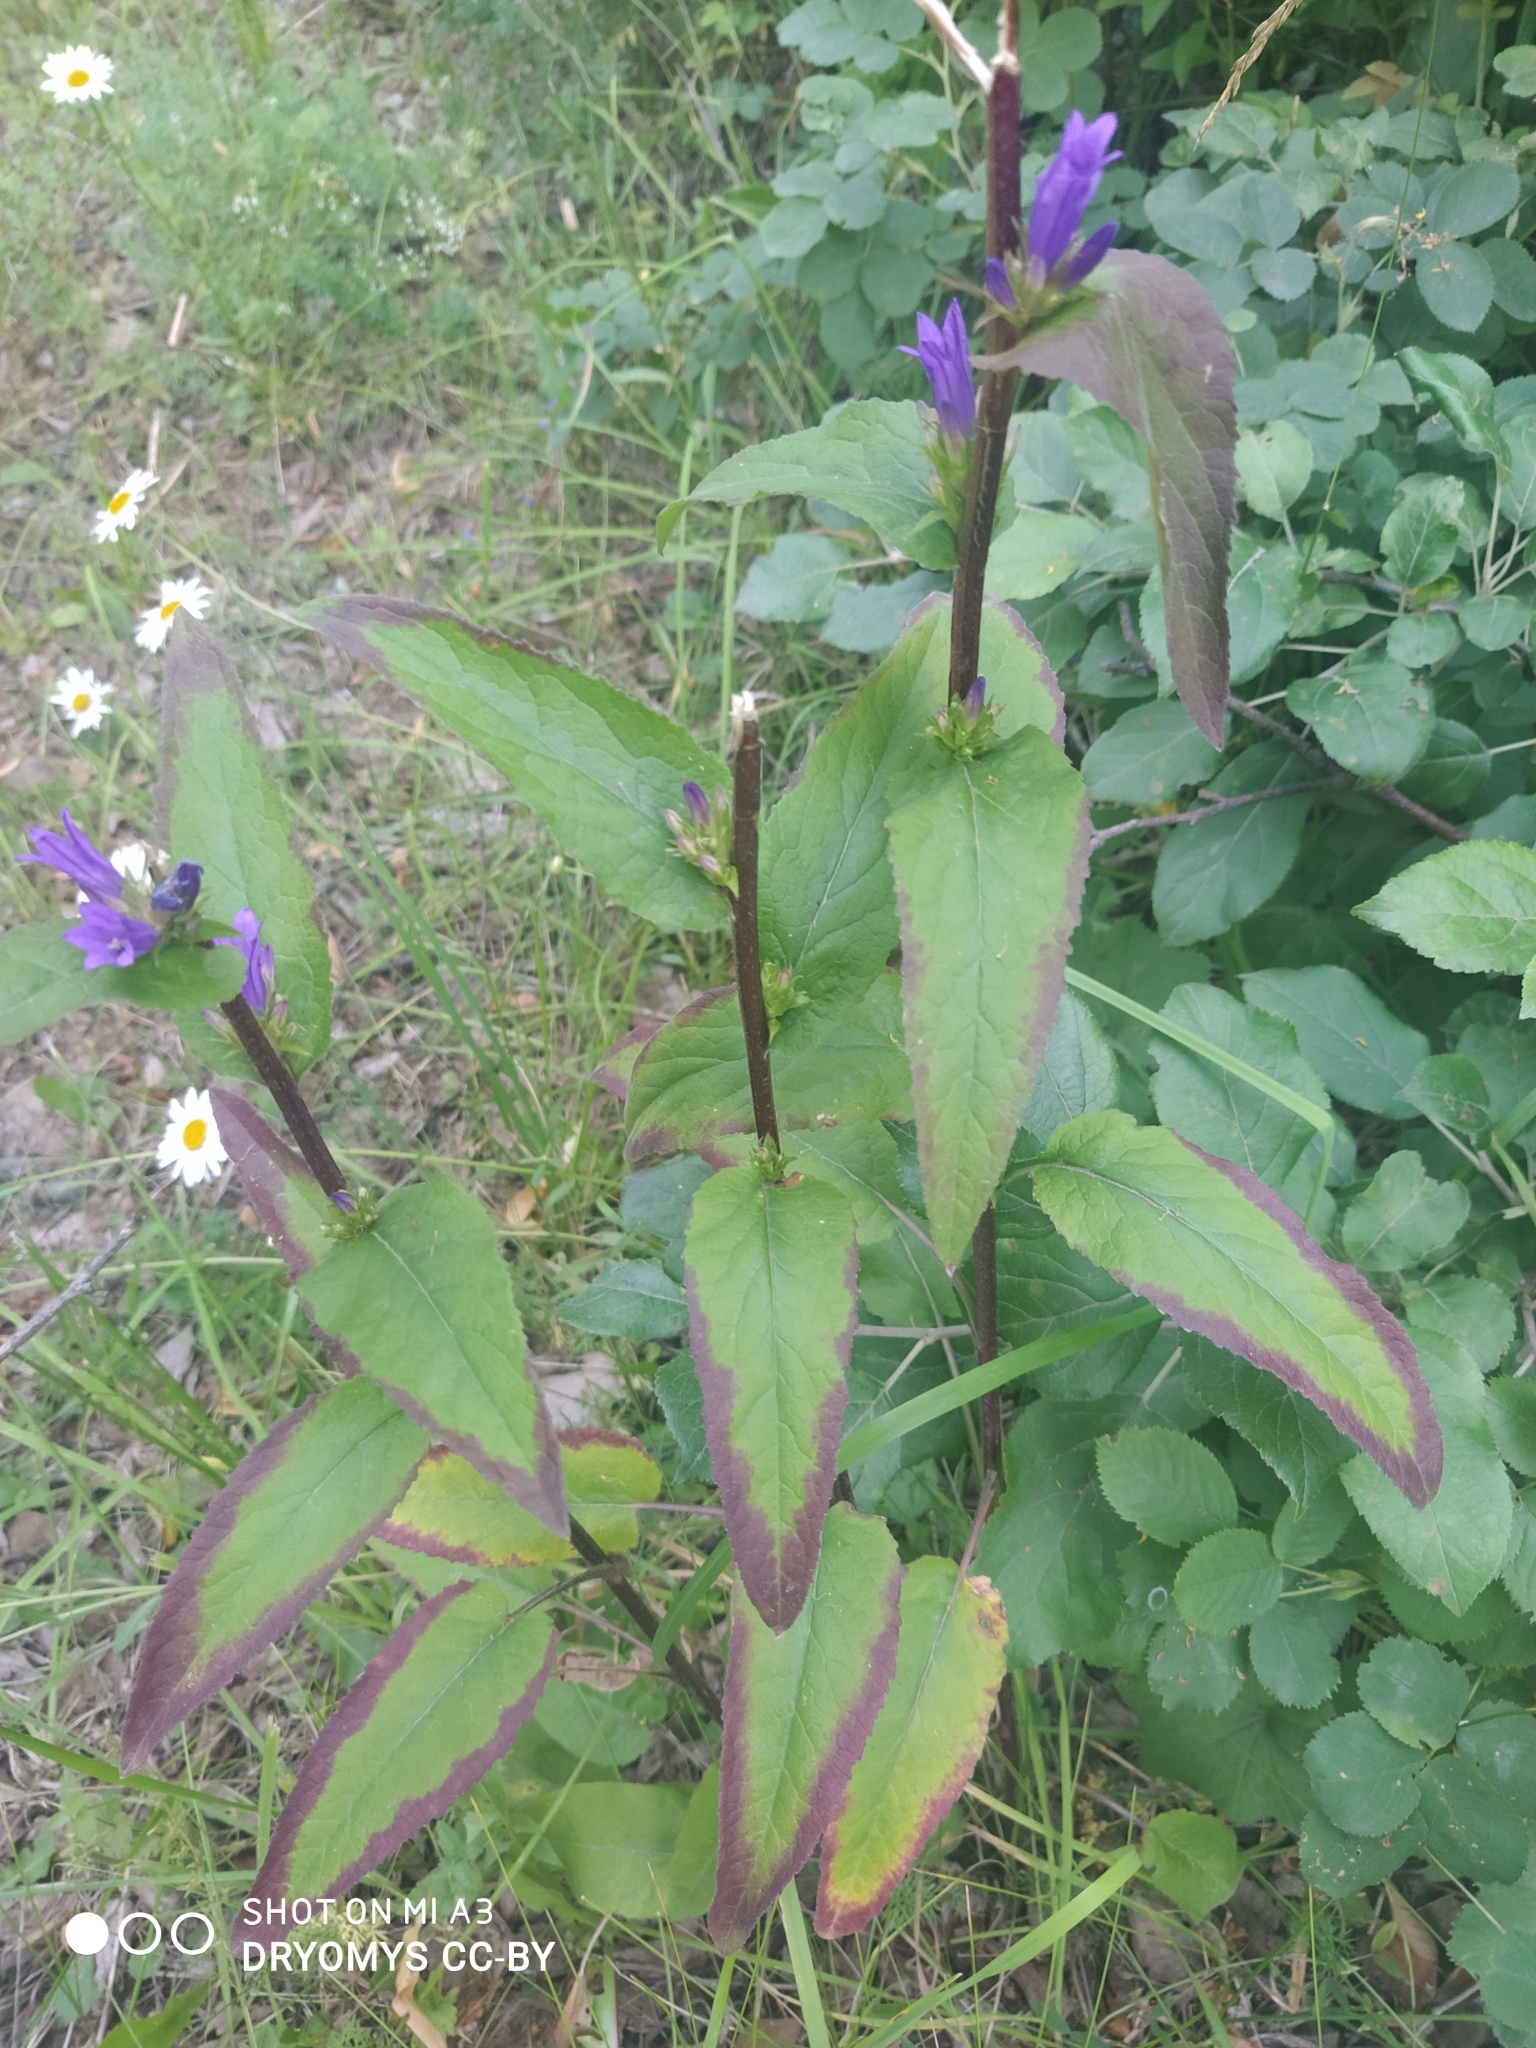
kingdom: Plantae
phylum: Tracheophyta
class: Magnoliopsida
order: Asterales
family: Campanulaceae
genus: Campanula
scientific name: Campanula glomerata
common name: Clustered bellflower
